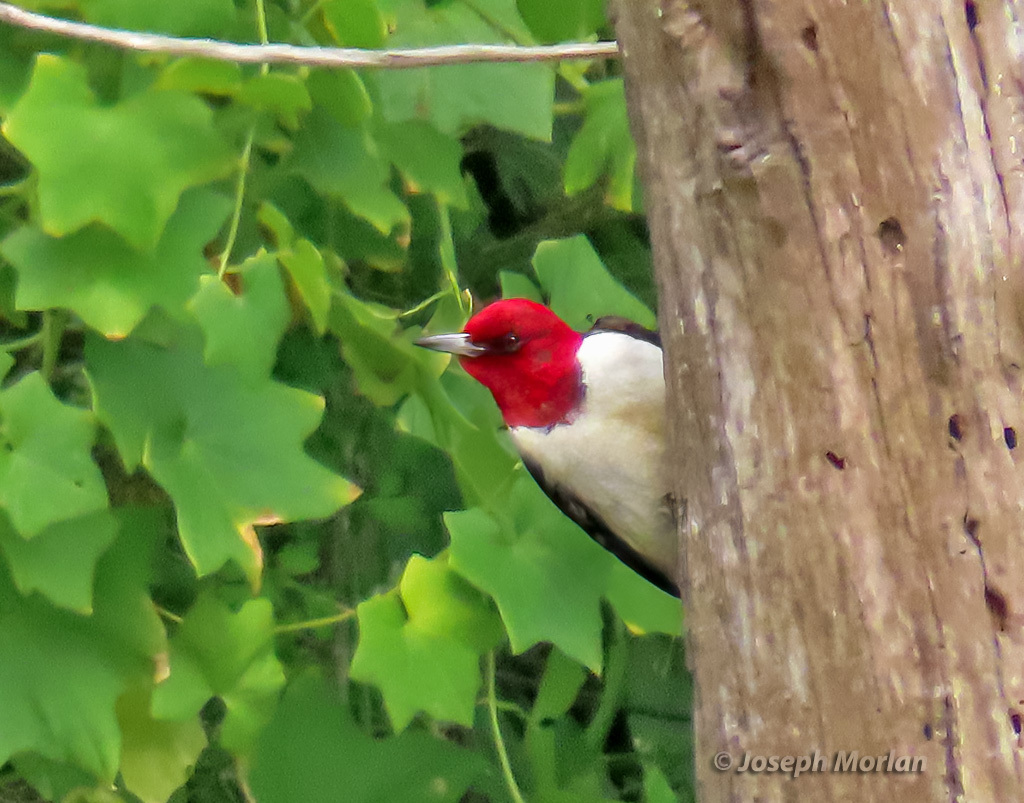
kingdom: Animalia
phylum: Chordata
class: Aves
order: Piciformes
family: Picidae
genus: Melanerpes
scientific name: Melanerpes erythrocephalus
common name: Red-headed woodpecker
